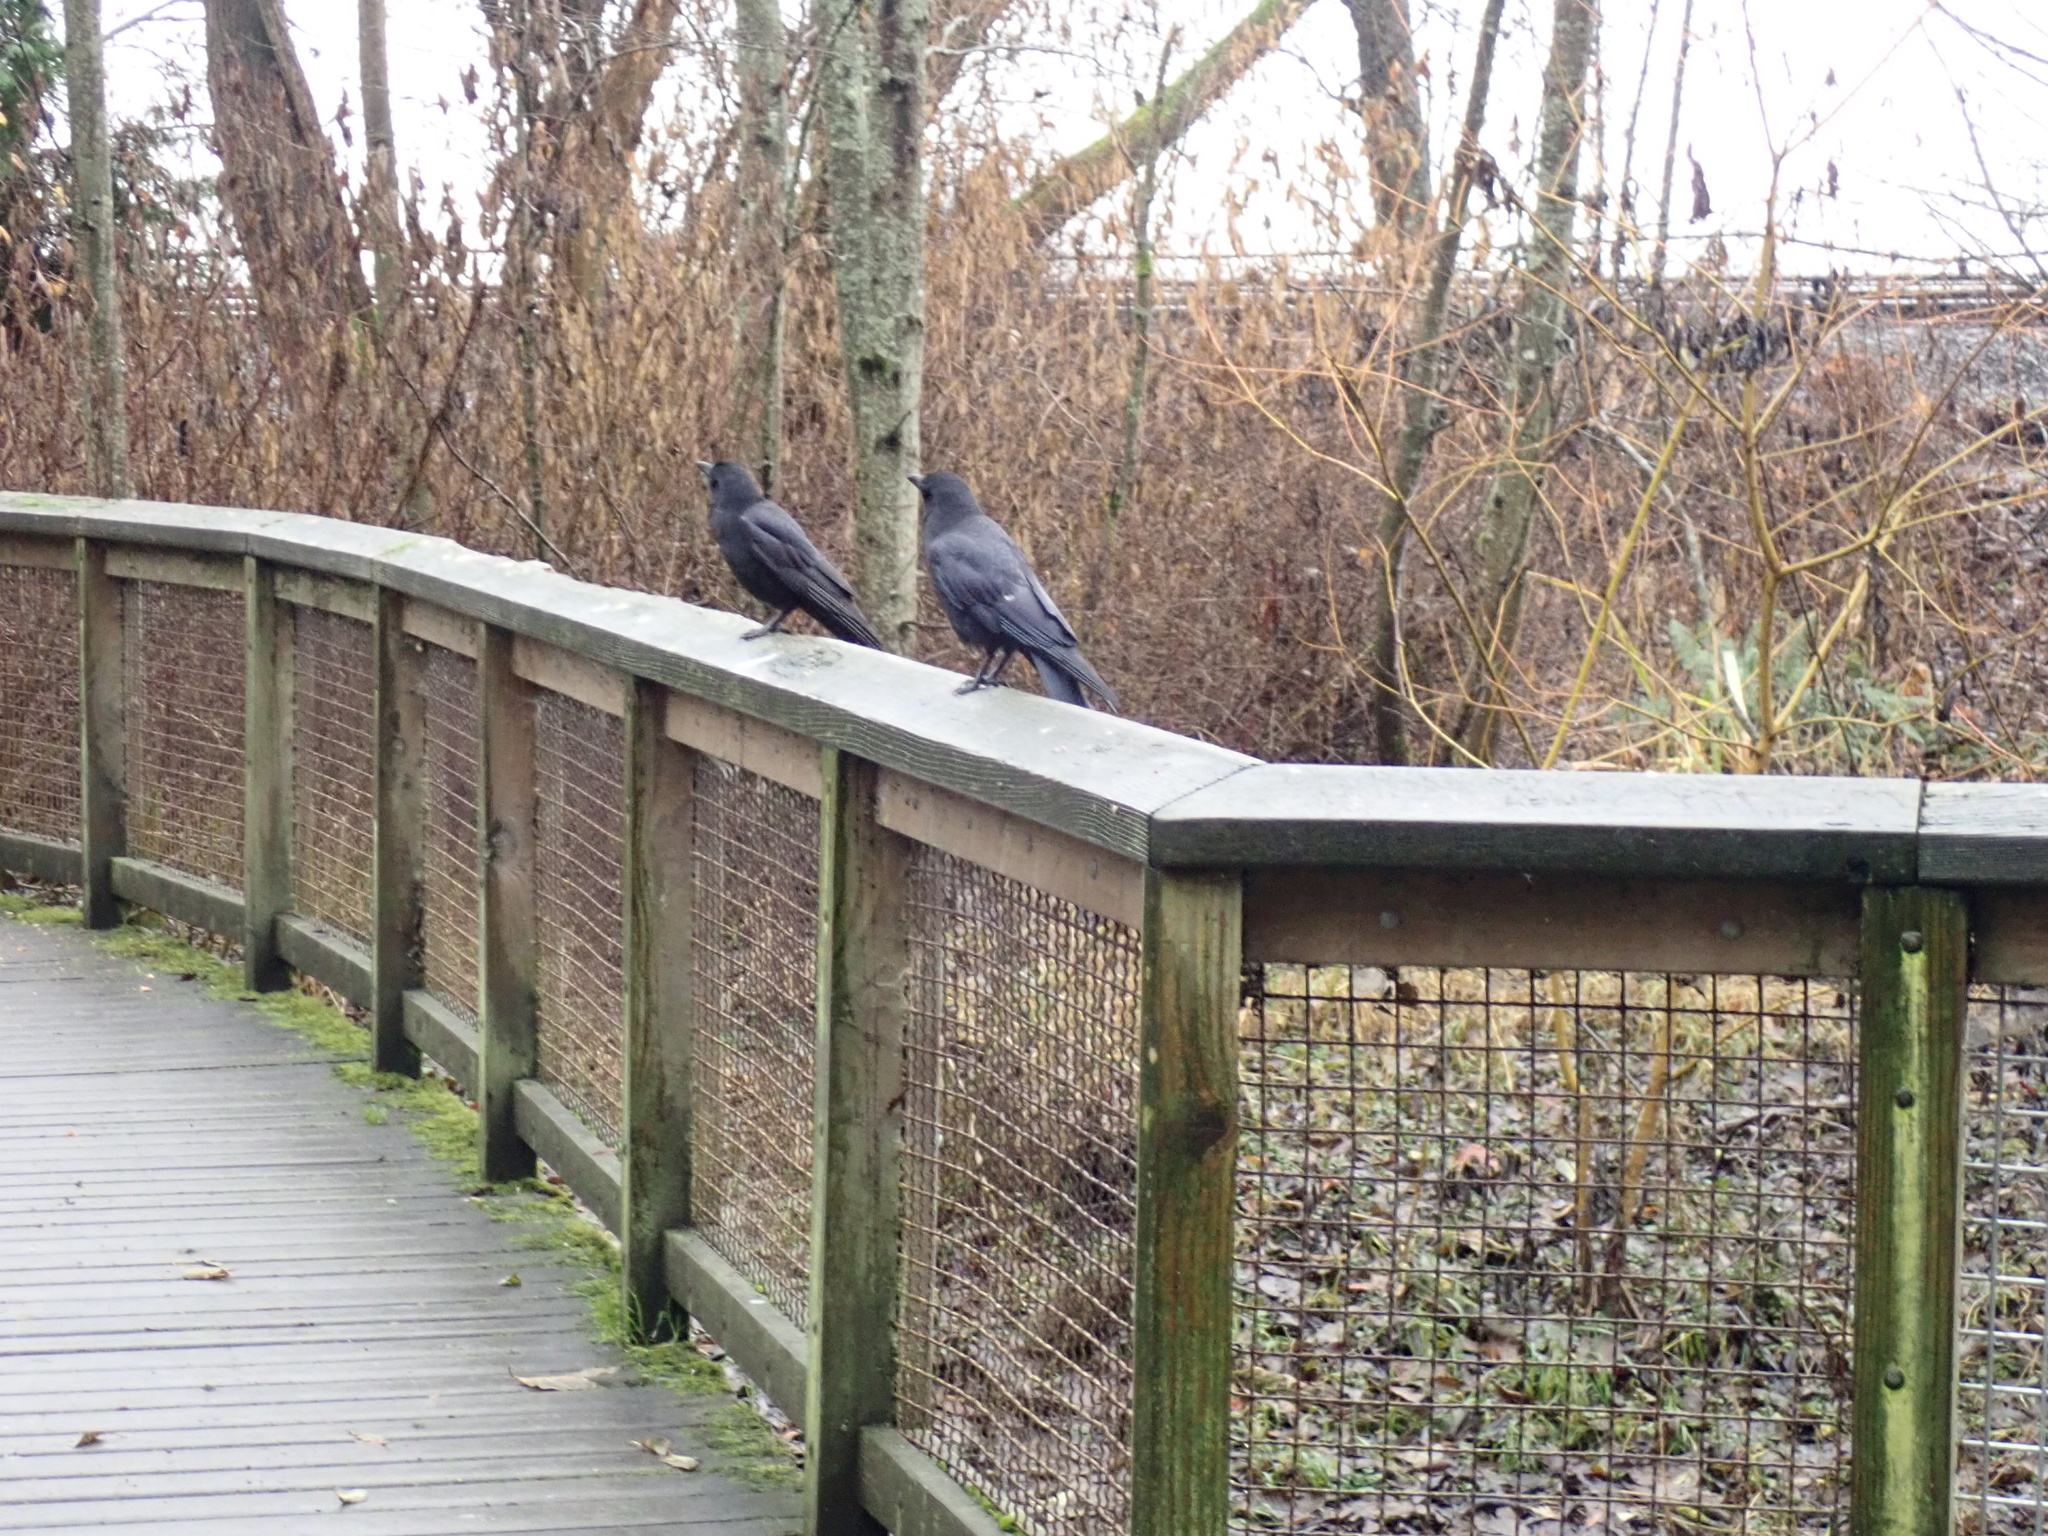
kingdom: Animalia
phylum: Chordata
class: Aves
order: Passeriformes
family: Corvidae
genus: Corvus
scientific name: Corvus brachyrhynchos
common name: American crow
